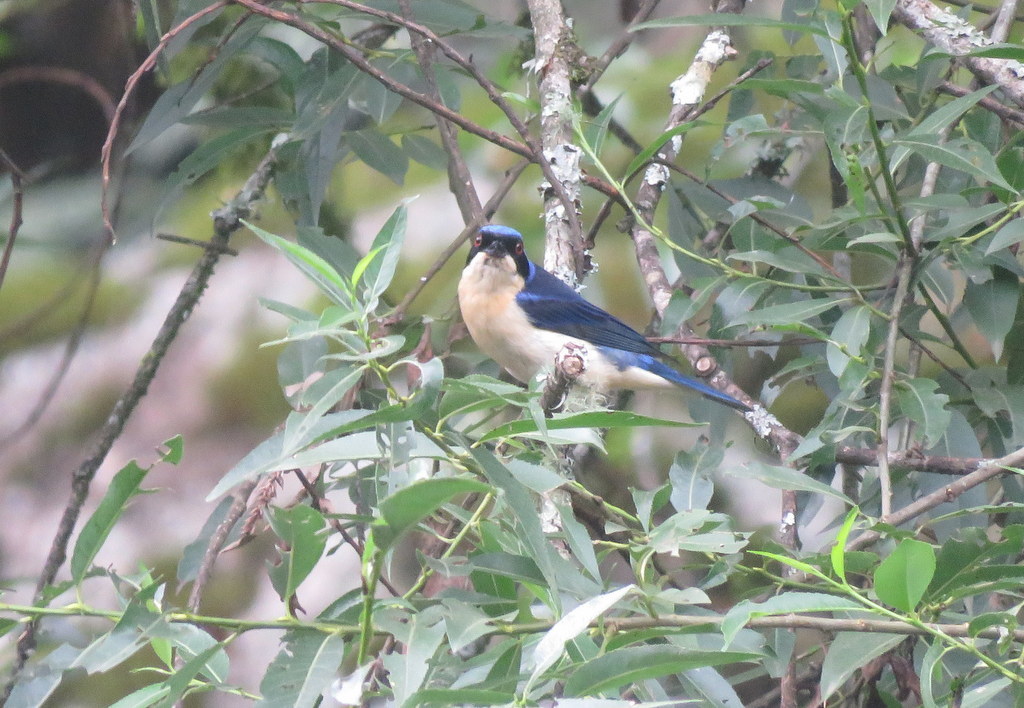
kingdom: Animalia
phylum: Chordata
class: Aves
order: Passeriformes
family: Thraupidae
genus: Pipraeidea
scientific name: Pipraeidea melanonota
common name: Fawn-breasted tanager
